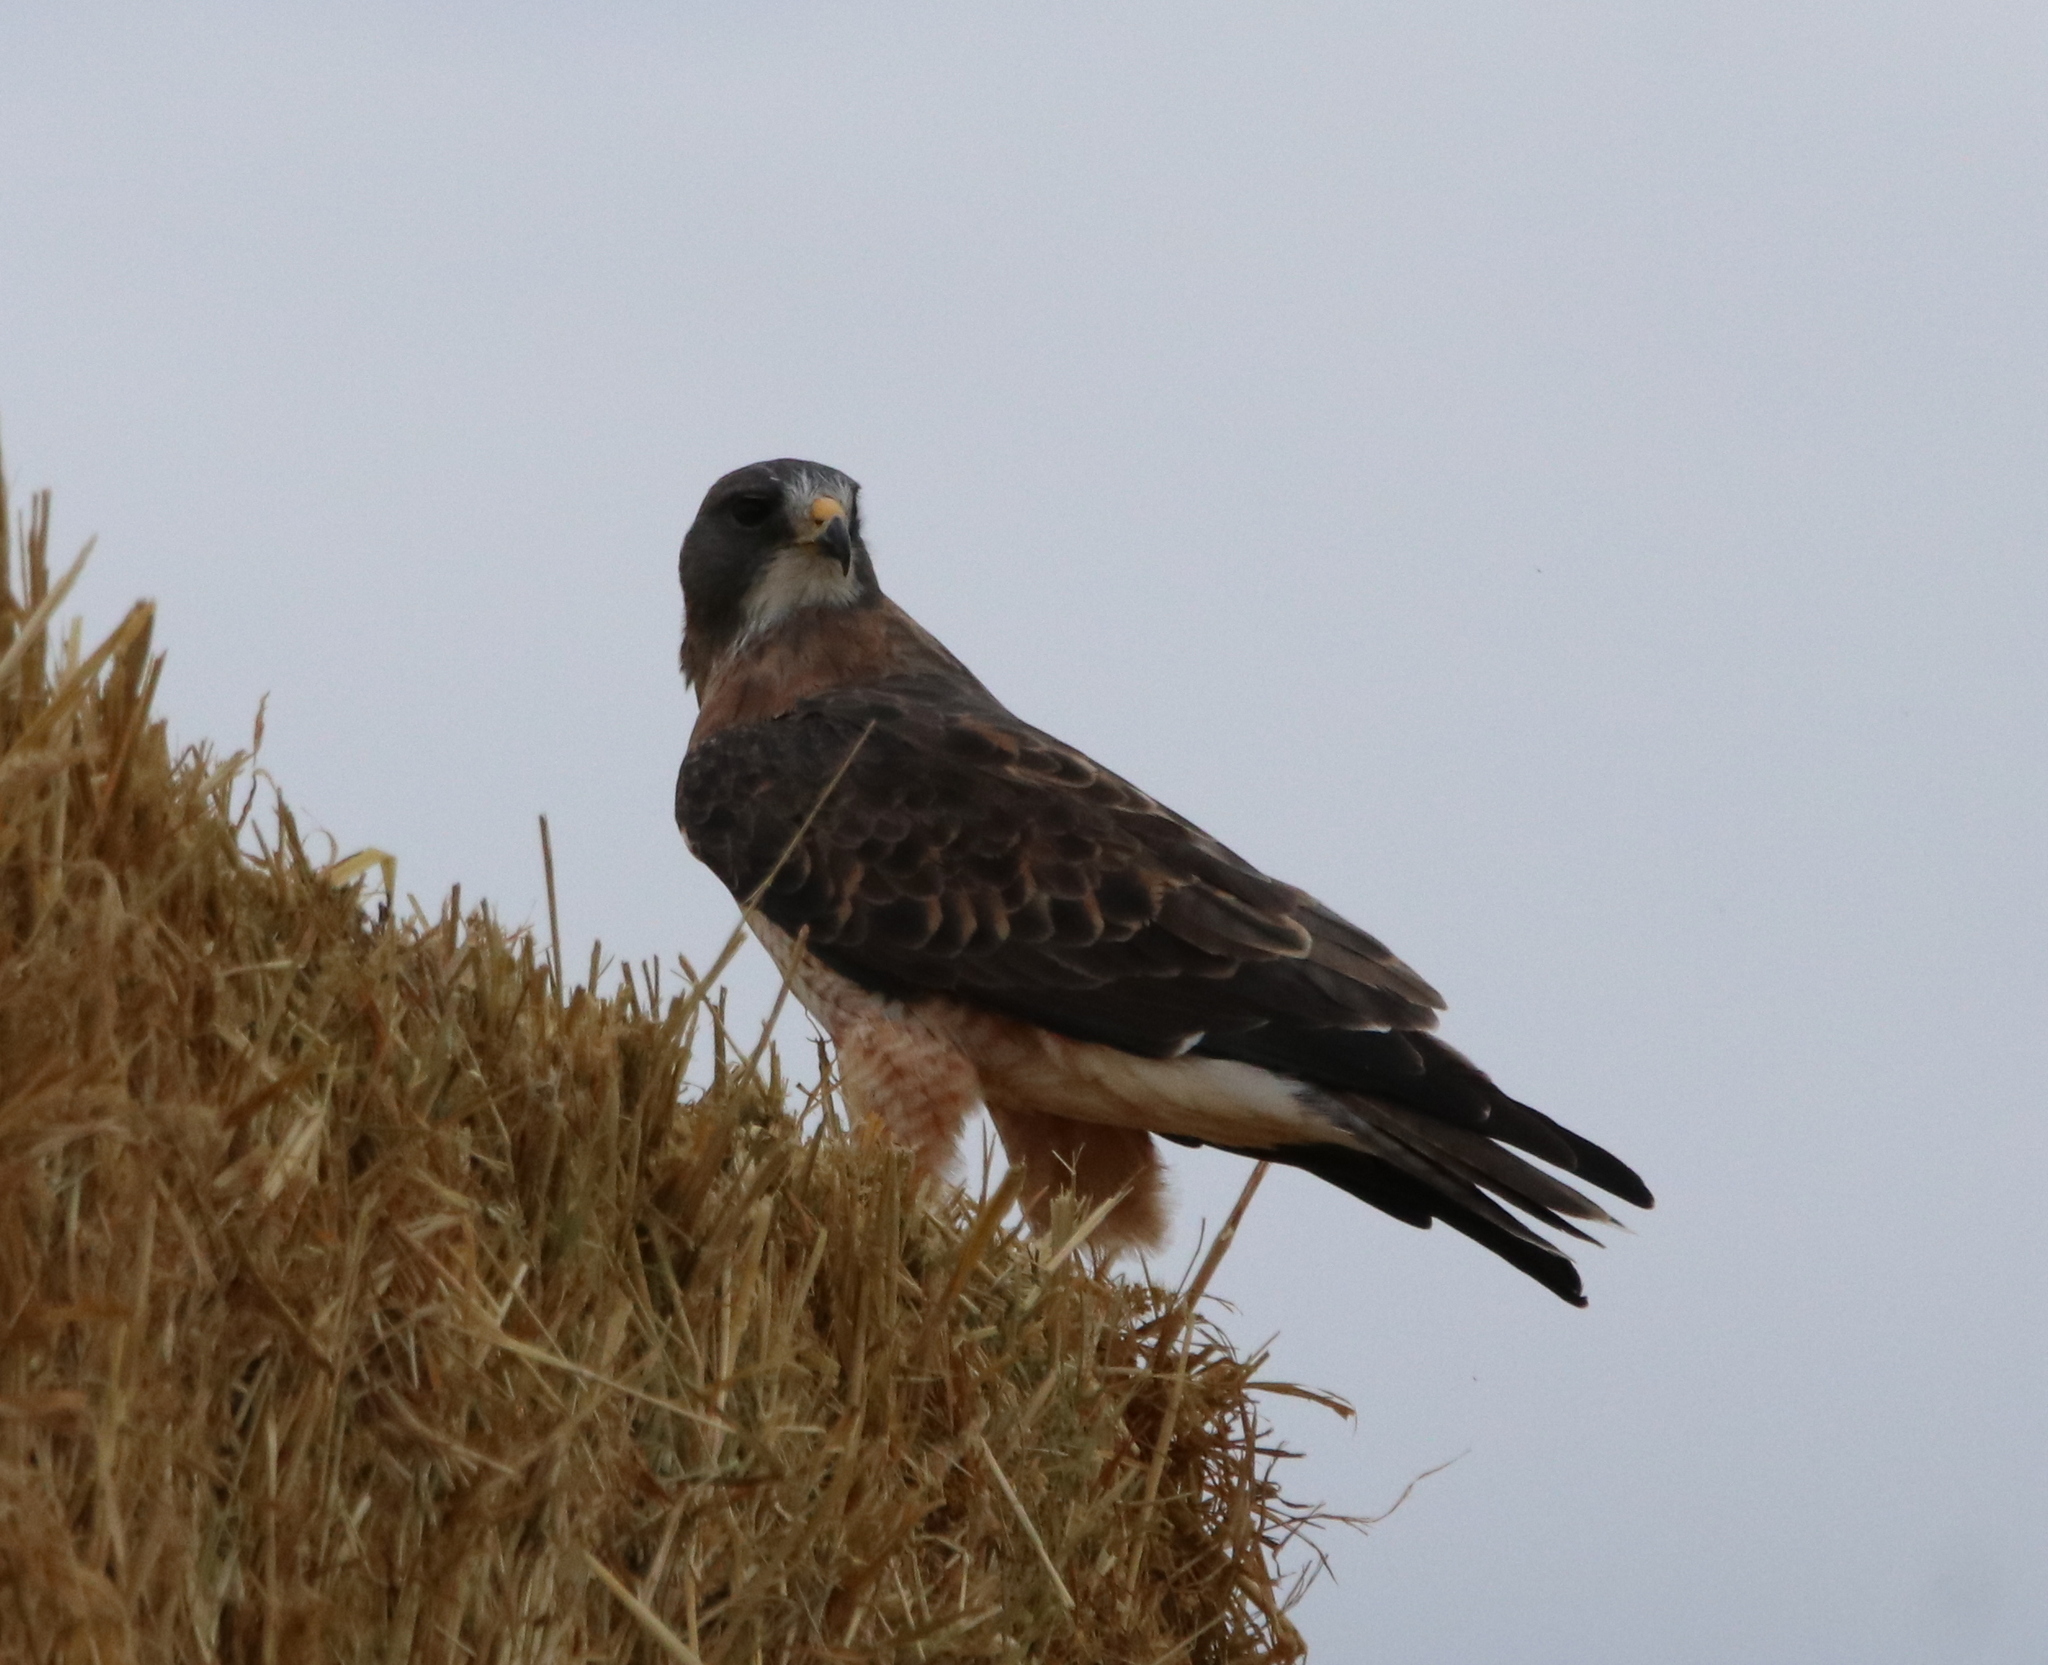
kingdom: Animalia
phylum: Chordata
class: Aves
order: Accipitriformes
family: Accipitridae
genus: Buteo
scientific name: Buteo swainsoni
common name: Swainson's hawk
